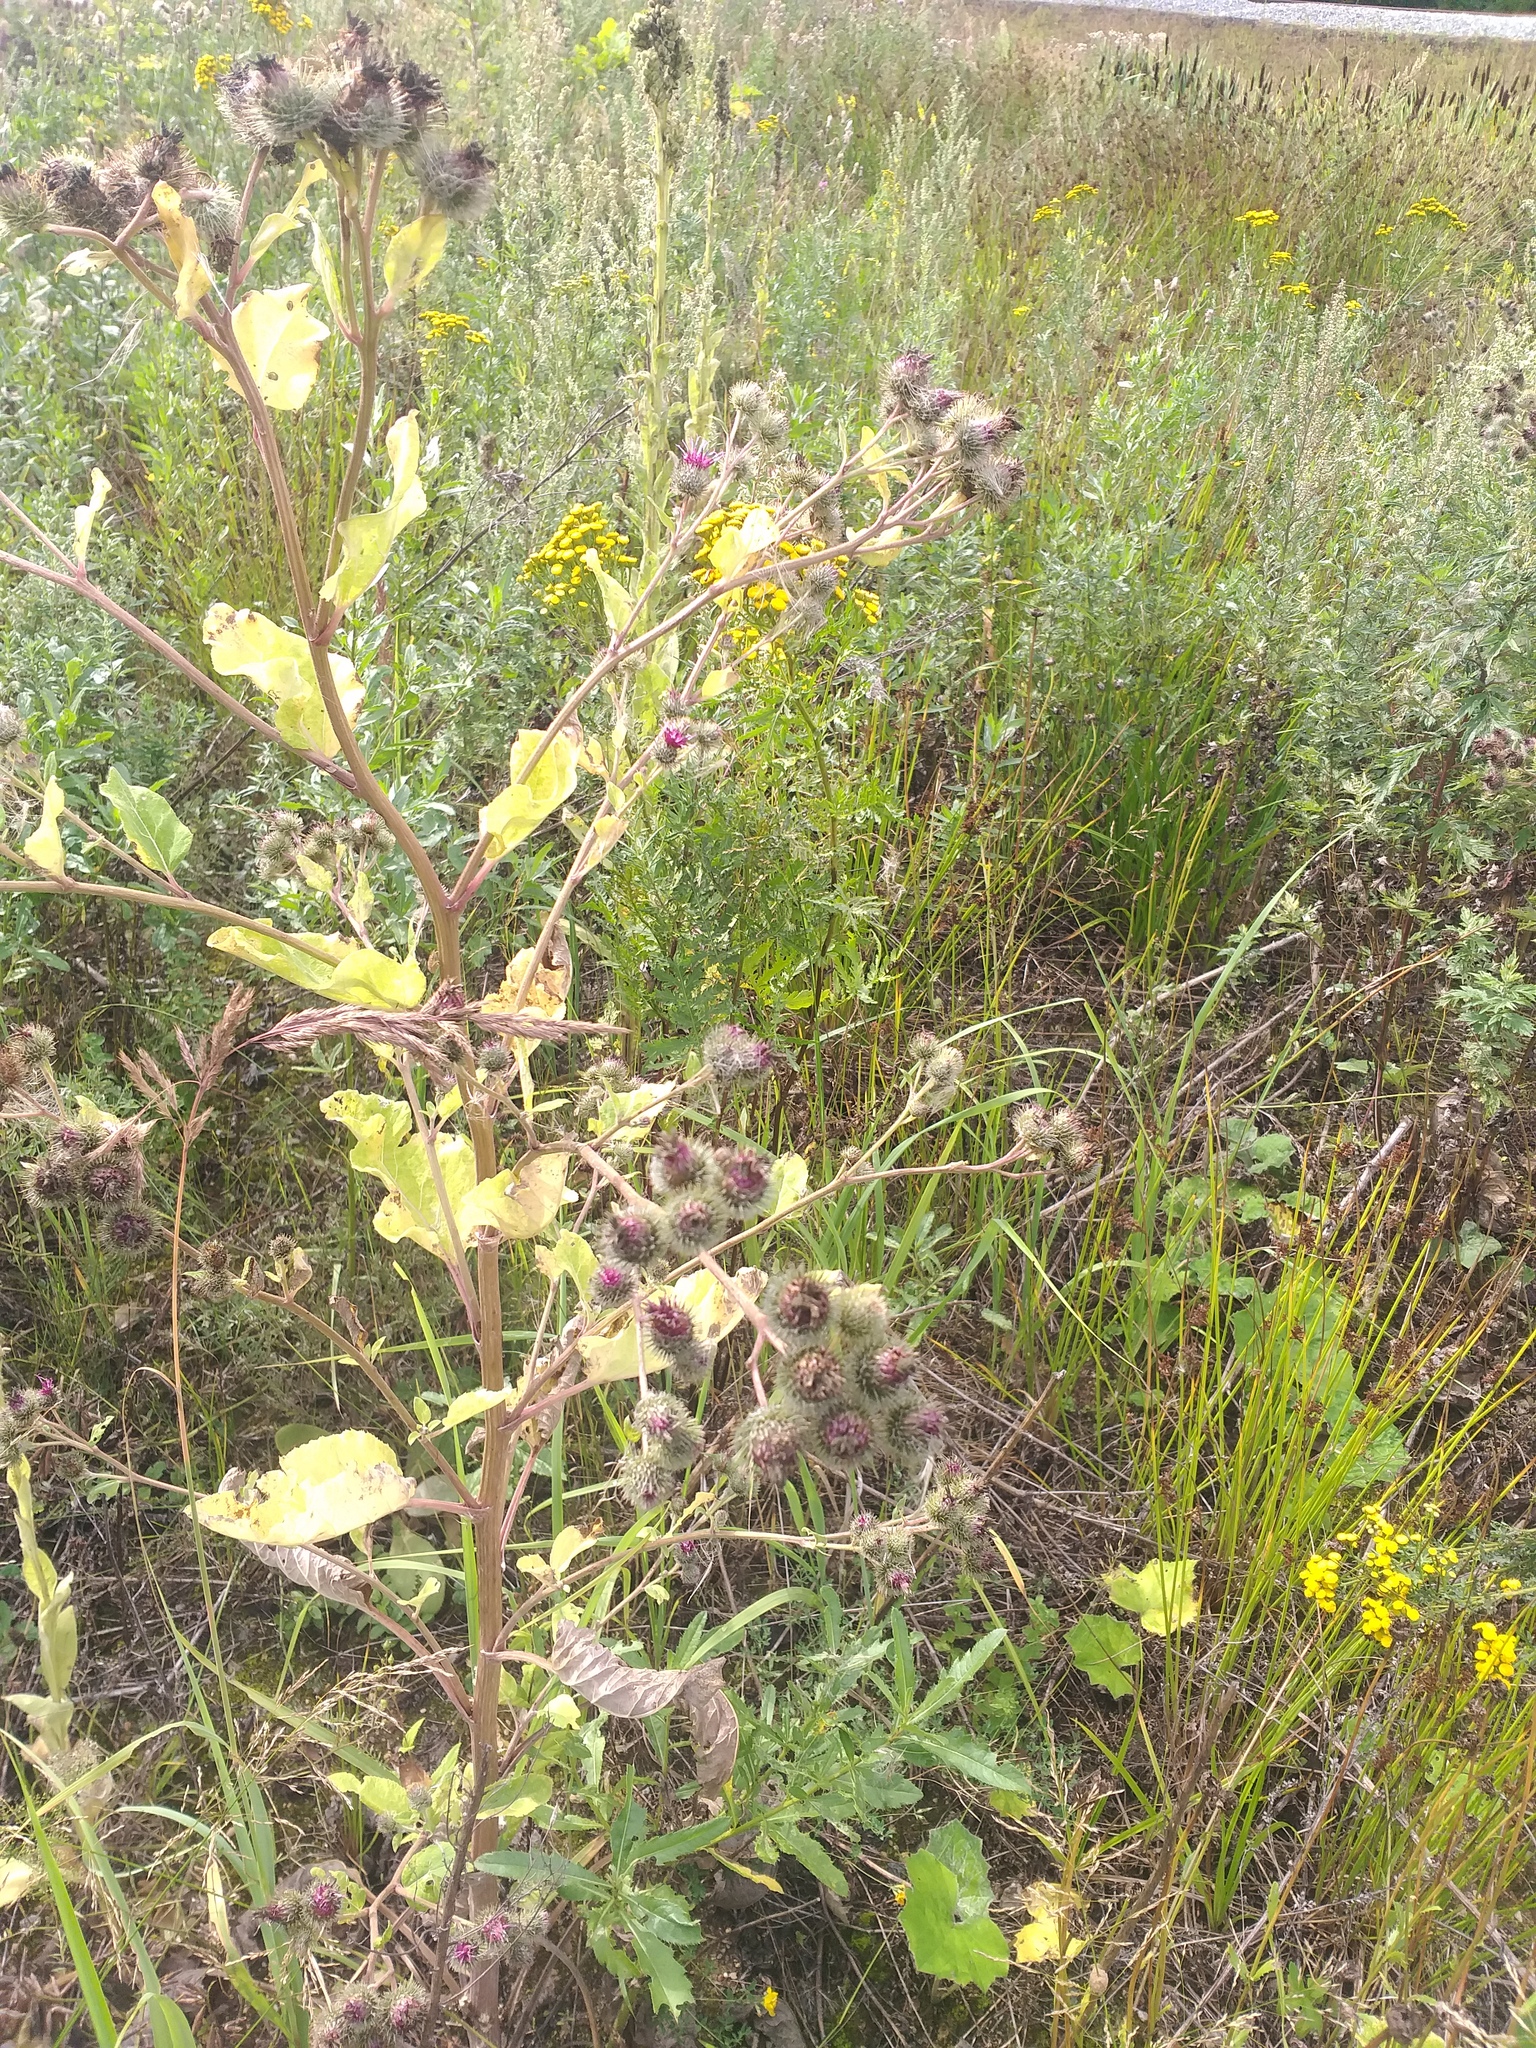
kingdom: Plantae
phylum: Tracheophyta
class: Magnoliopsida
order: Asterales
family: Asteraceae
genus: Arctium
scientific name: Arctium tomentosum
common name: Woolly burdock
